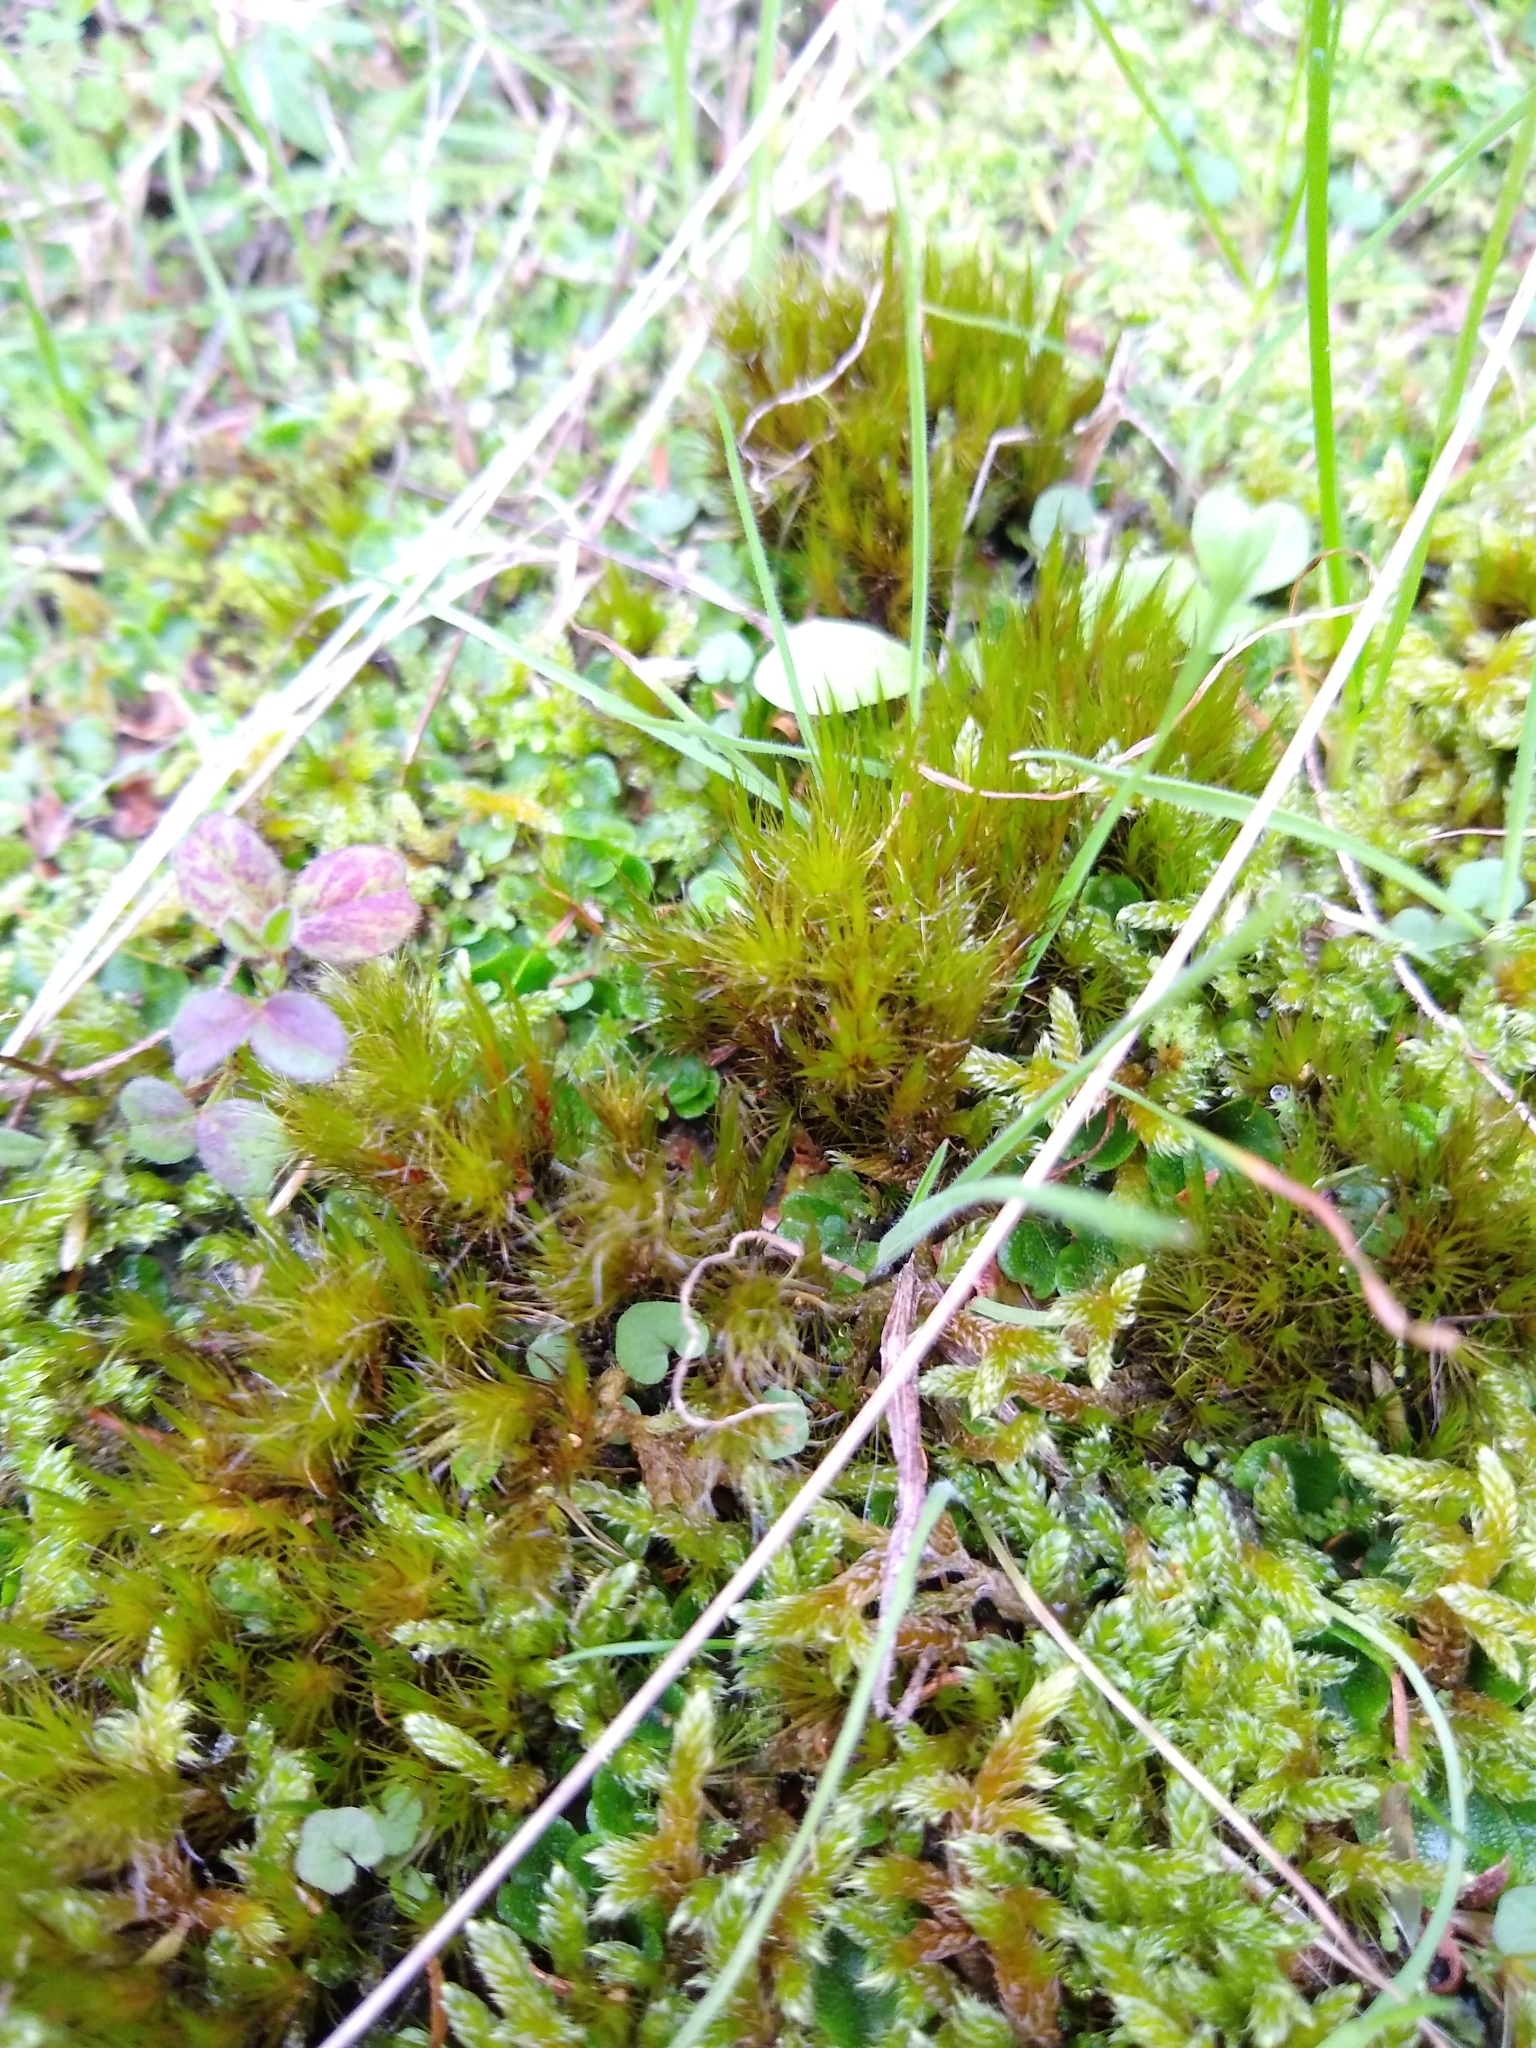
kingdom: Plantae
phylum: Bryophyta
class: Bryopsida
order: Dicranales
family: Leucobryaceae
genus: Campylopus
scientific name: Campylopus introflexus
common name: Heath star moss
